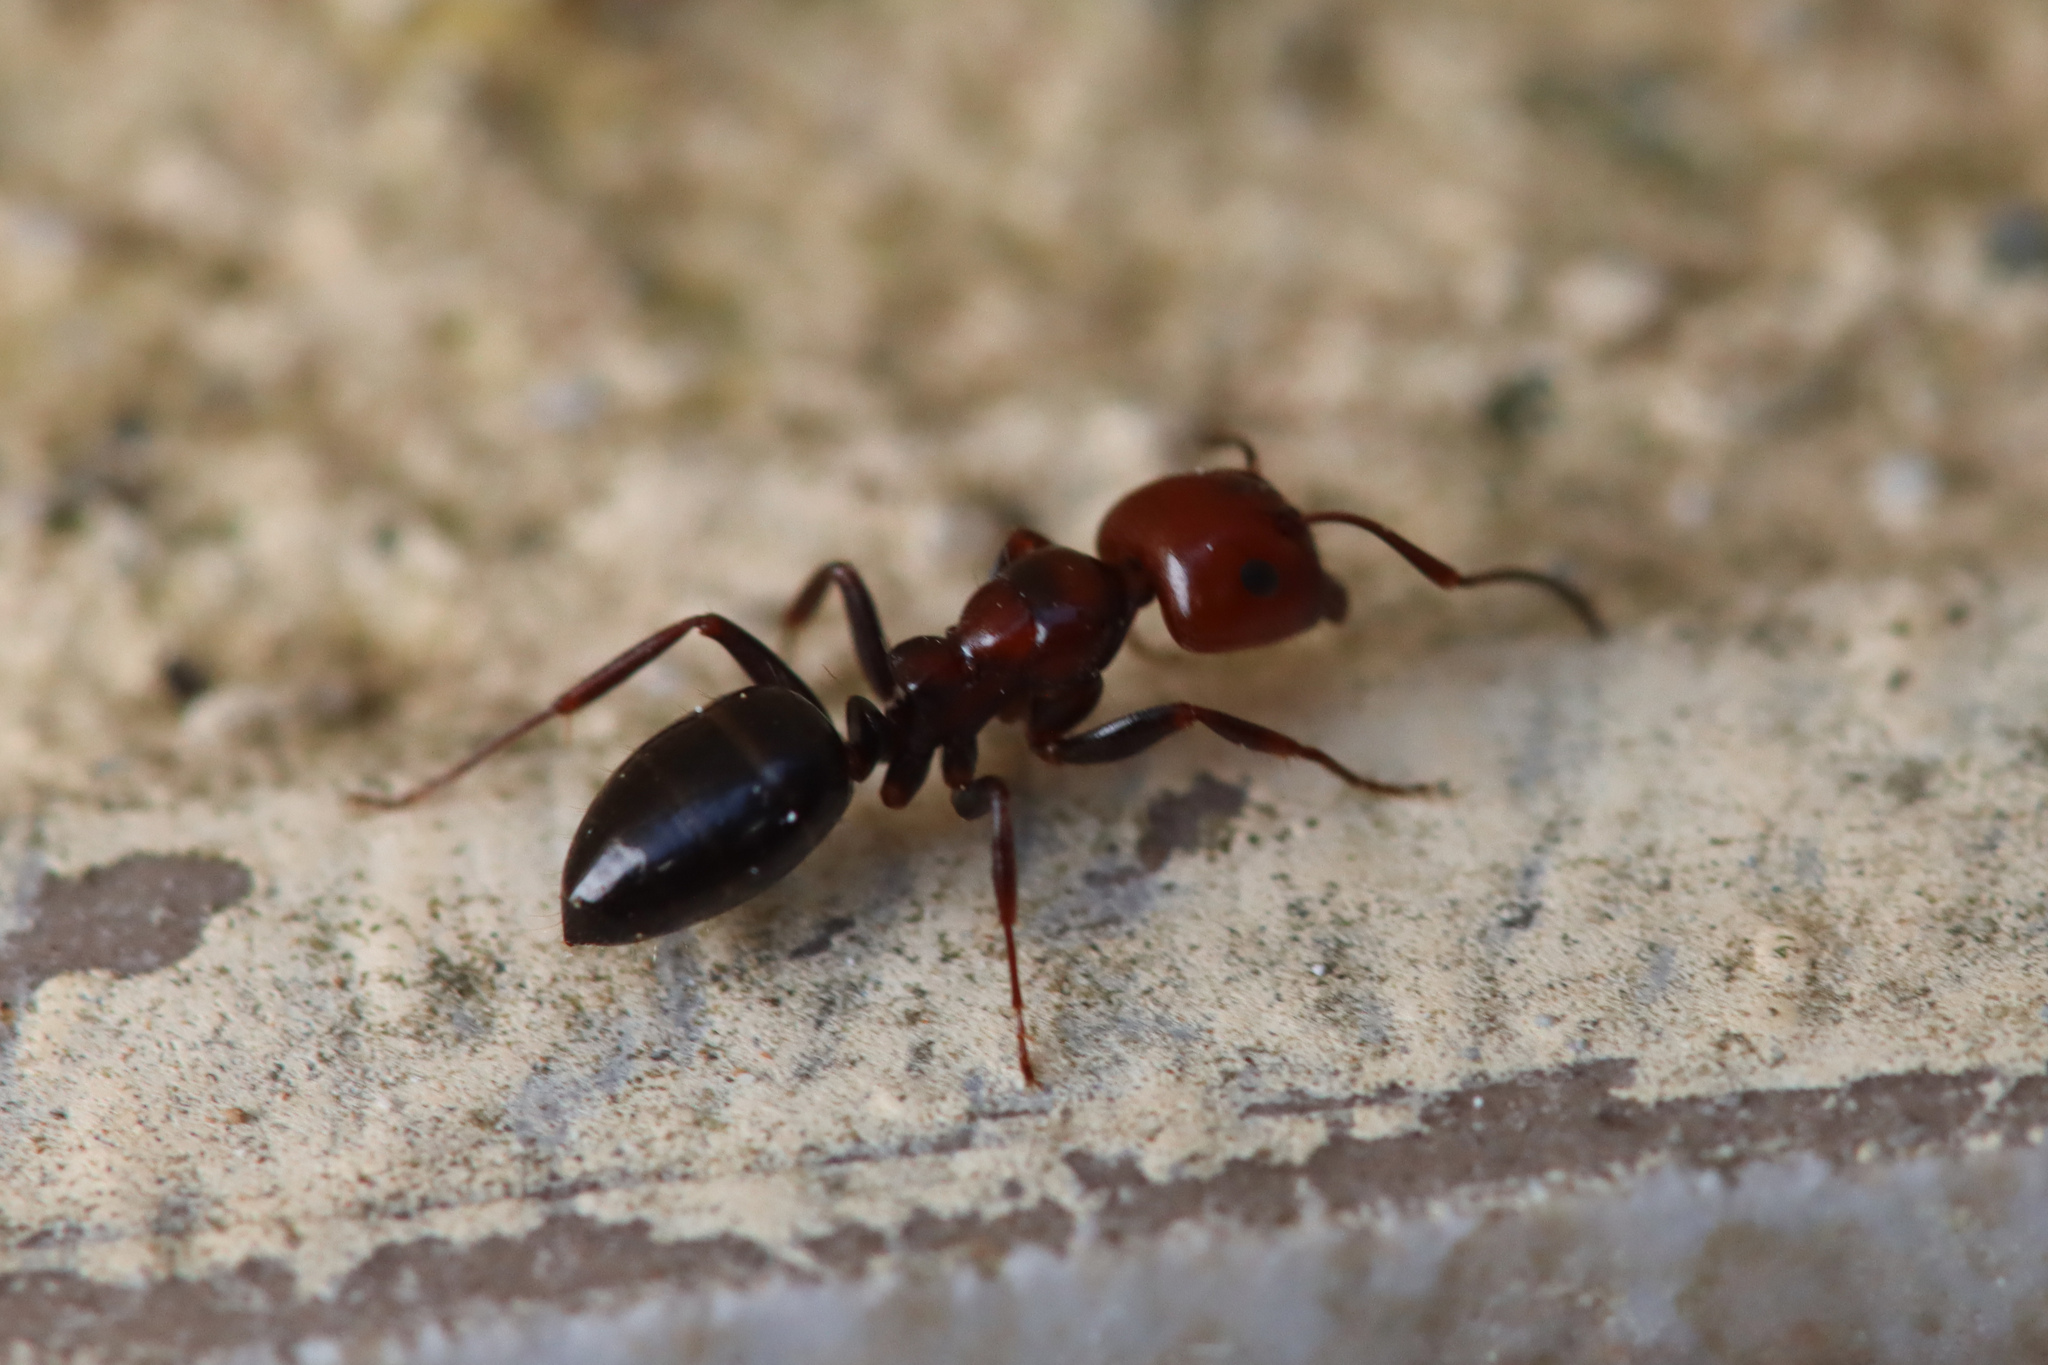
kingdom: Animalia
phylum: Arthropoda
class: Insecta
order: Hymenoptera
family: Formicidae
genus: Camponotus
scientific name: Camponotus lateralis
